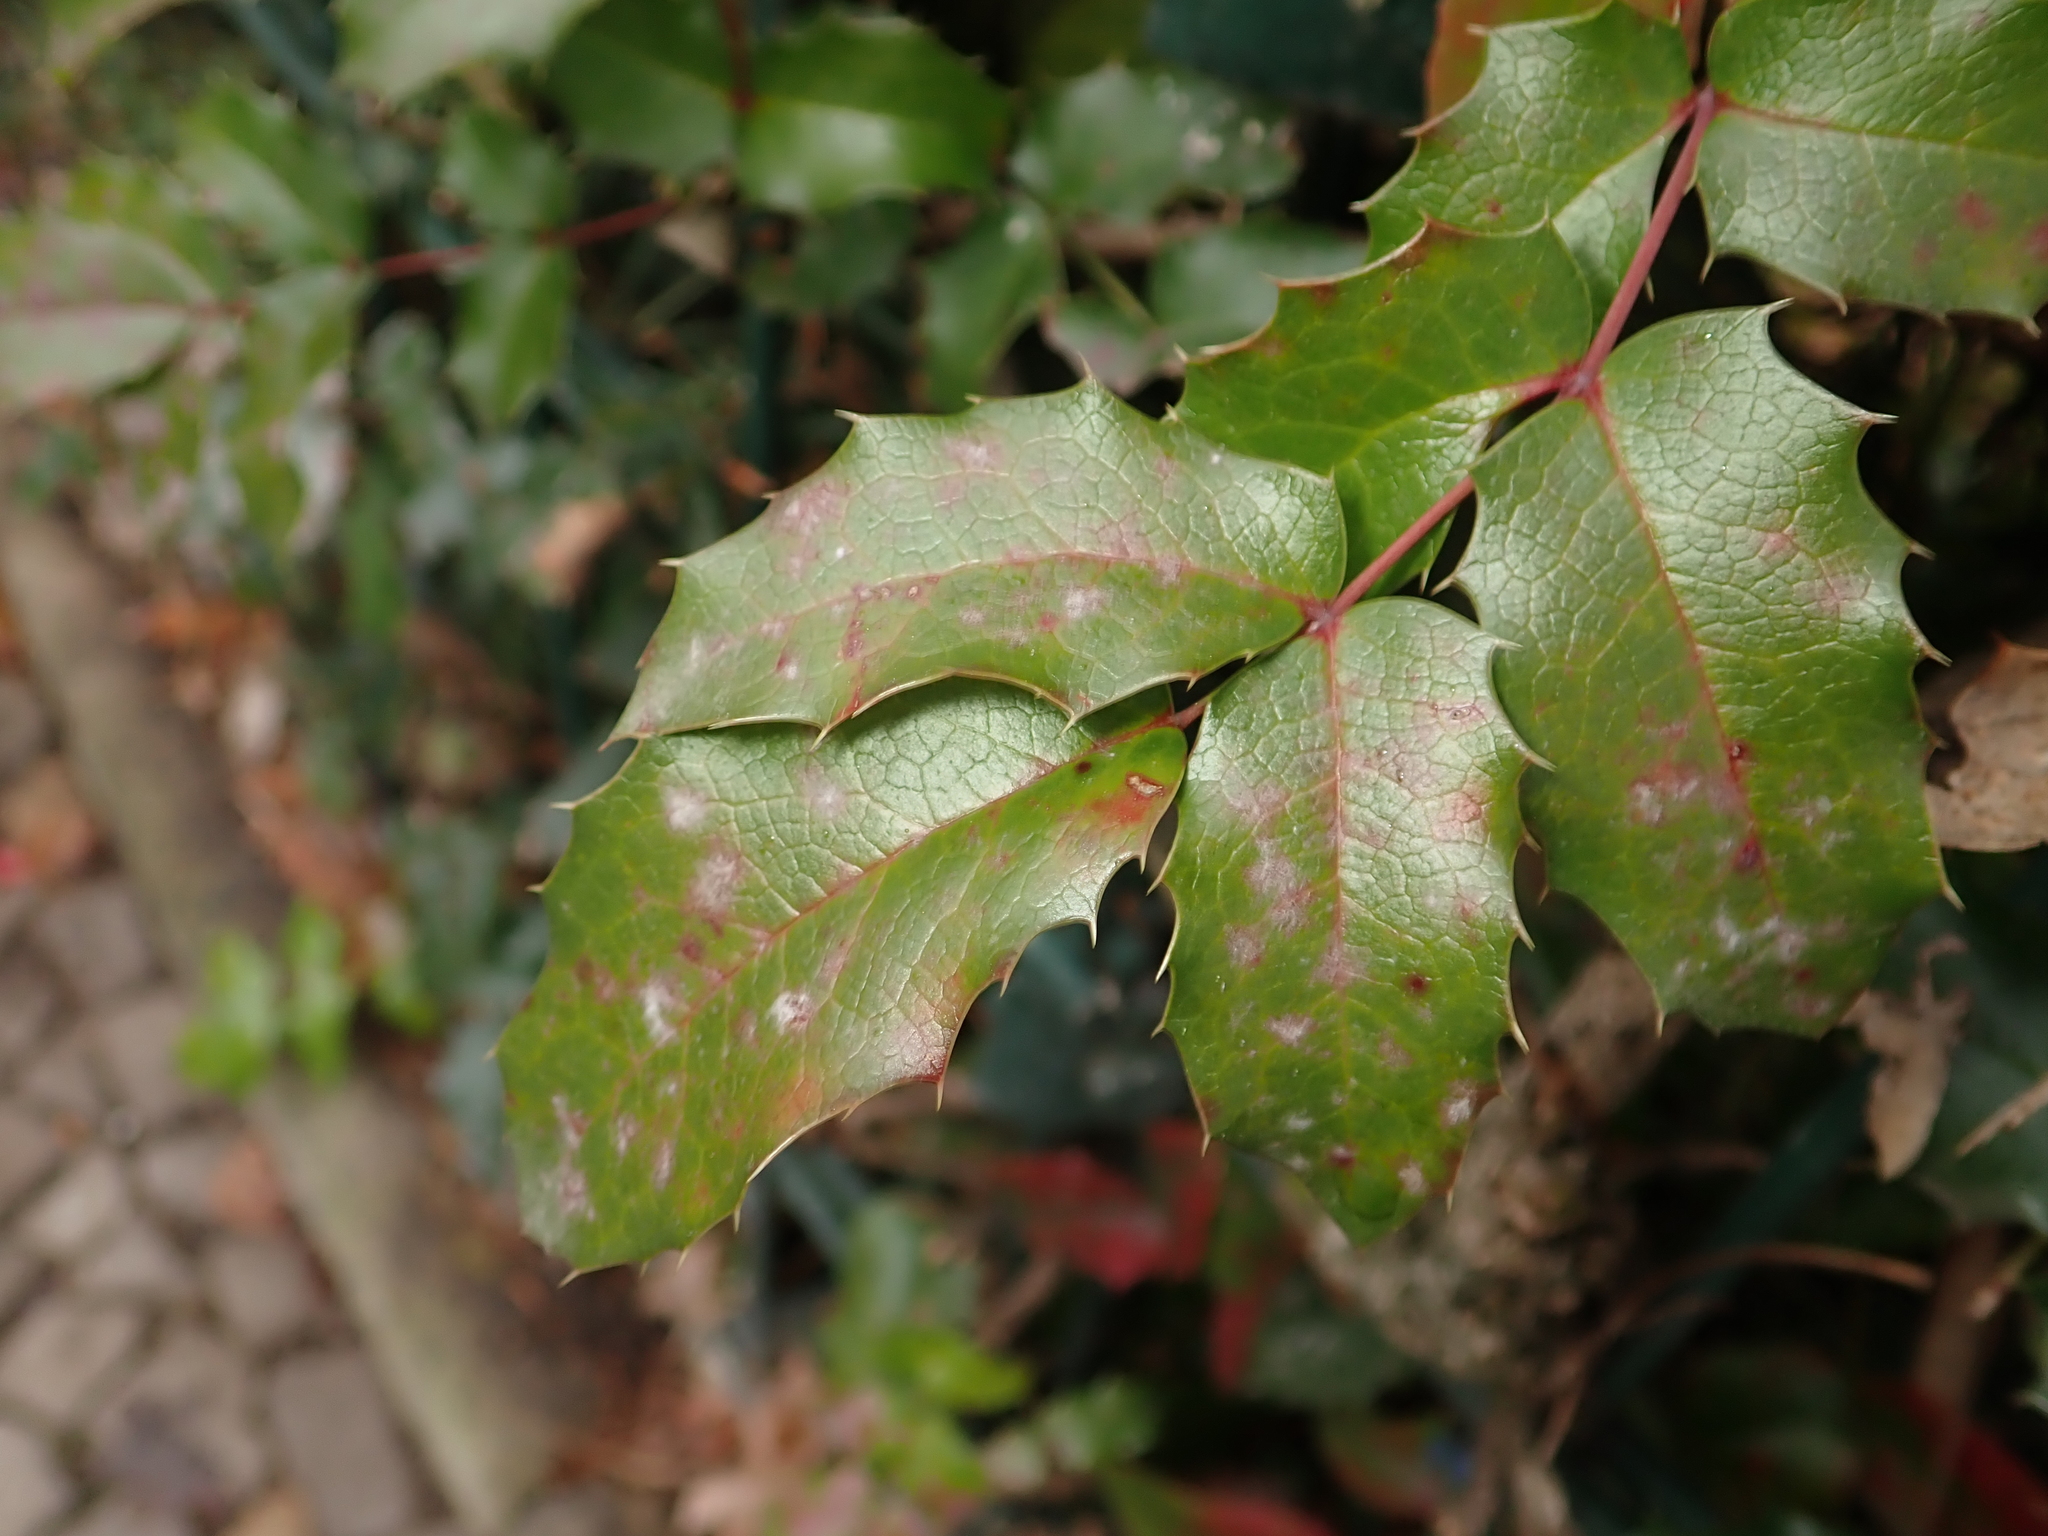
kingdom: Plantae
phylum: Tracheophyta
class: Magnoliopsida
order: Ranunculales
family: Berberidaceae
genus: Mahonia
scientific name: Mahonia aquifolium
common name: Oregon-grape
